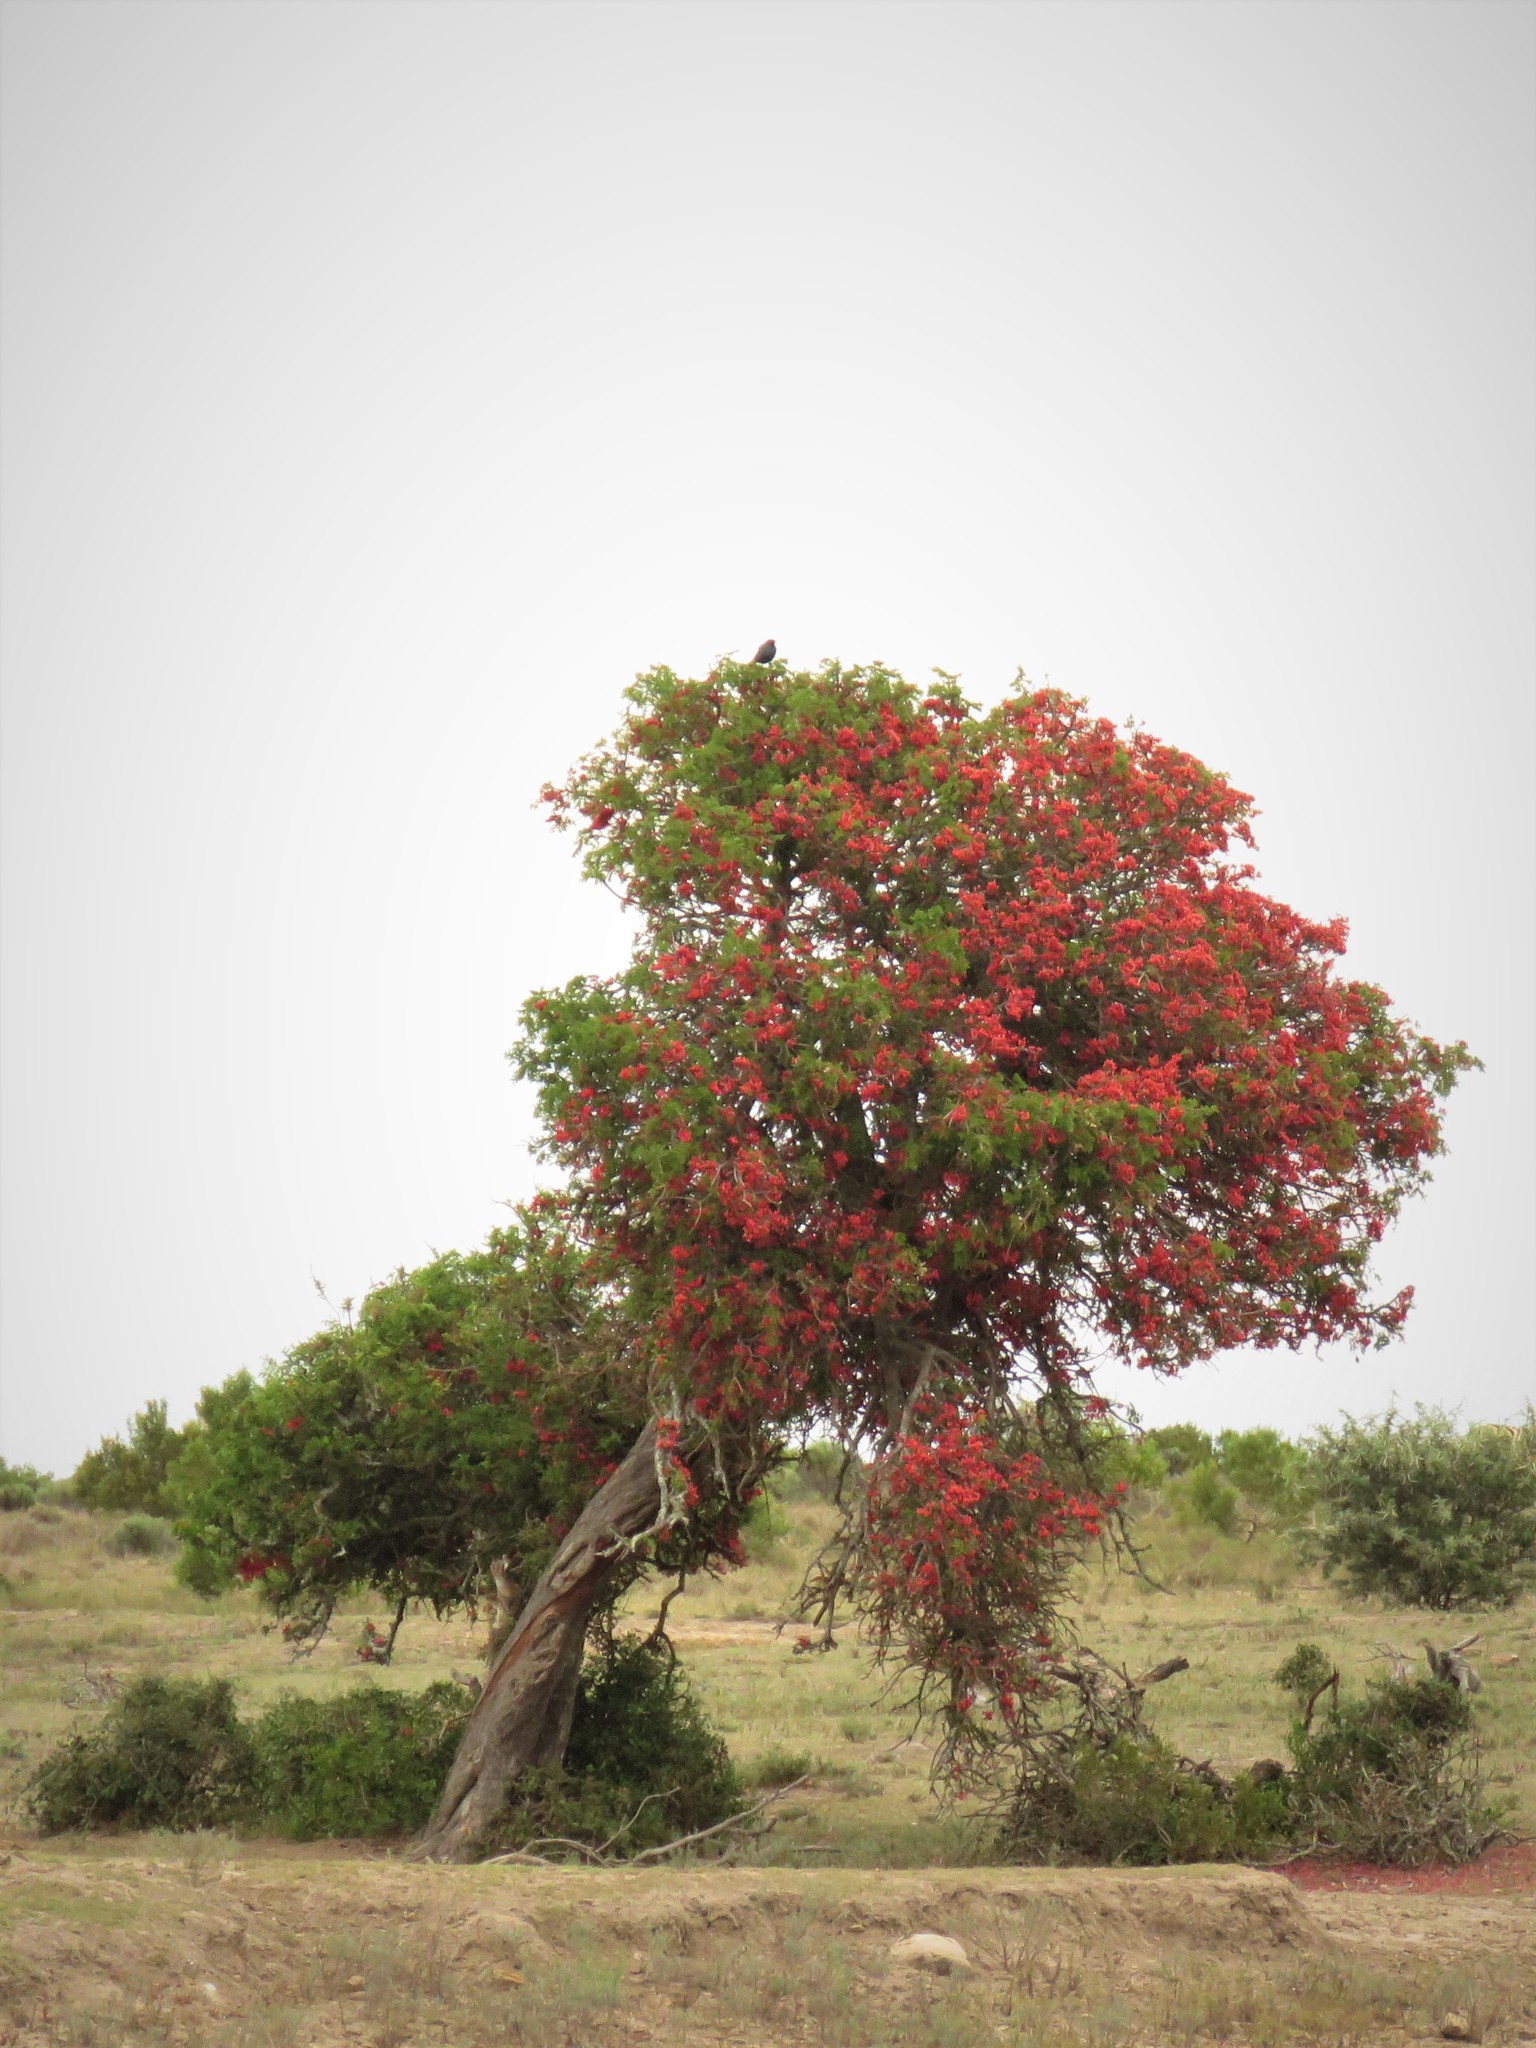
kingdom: Plantae
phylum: Tracheophyta
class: Magnoliopsida
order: Fabales
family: Fabaceae
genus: Schotia
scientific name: Schotia afra
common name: Hottentot's bean
